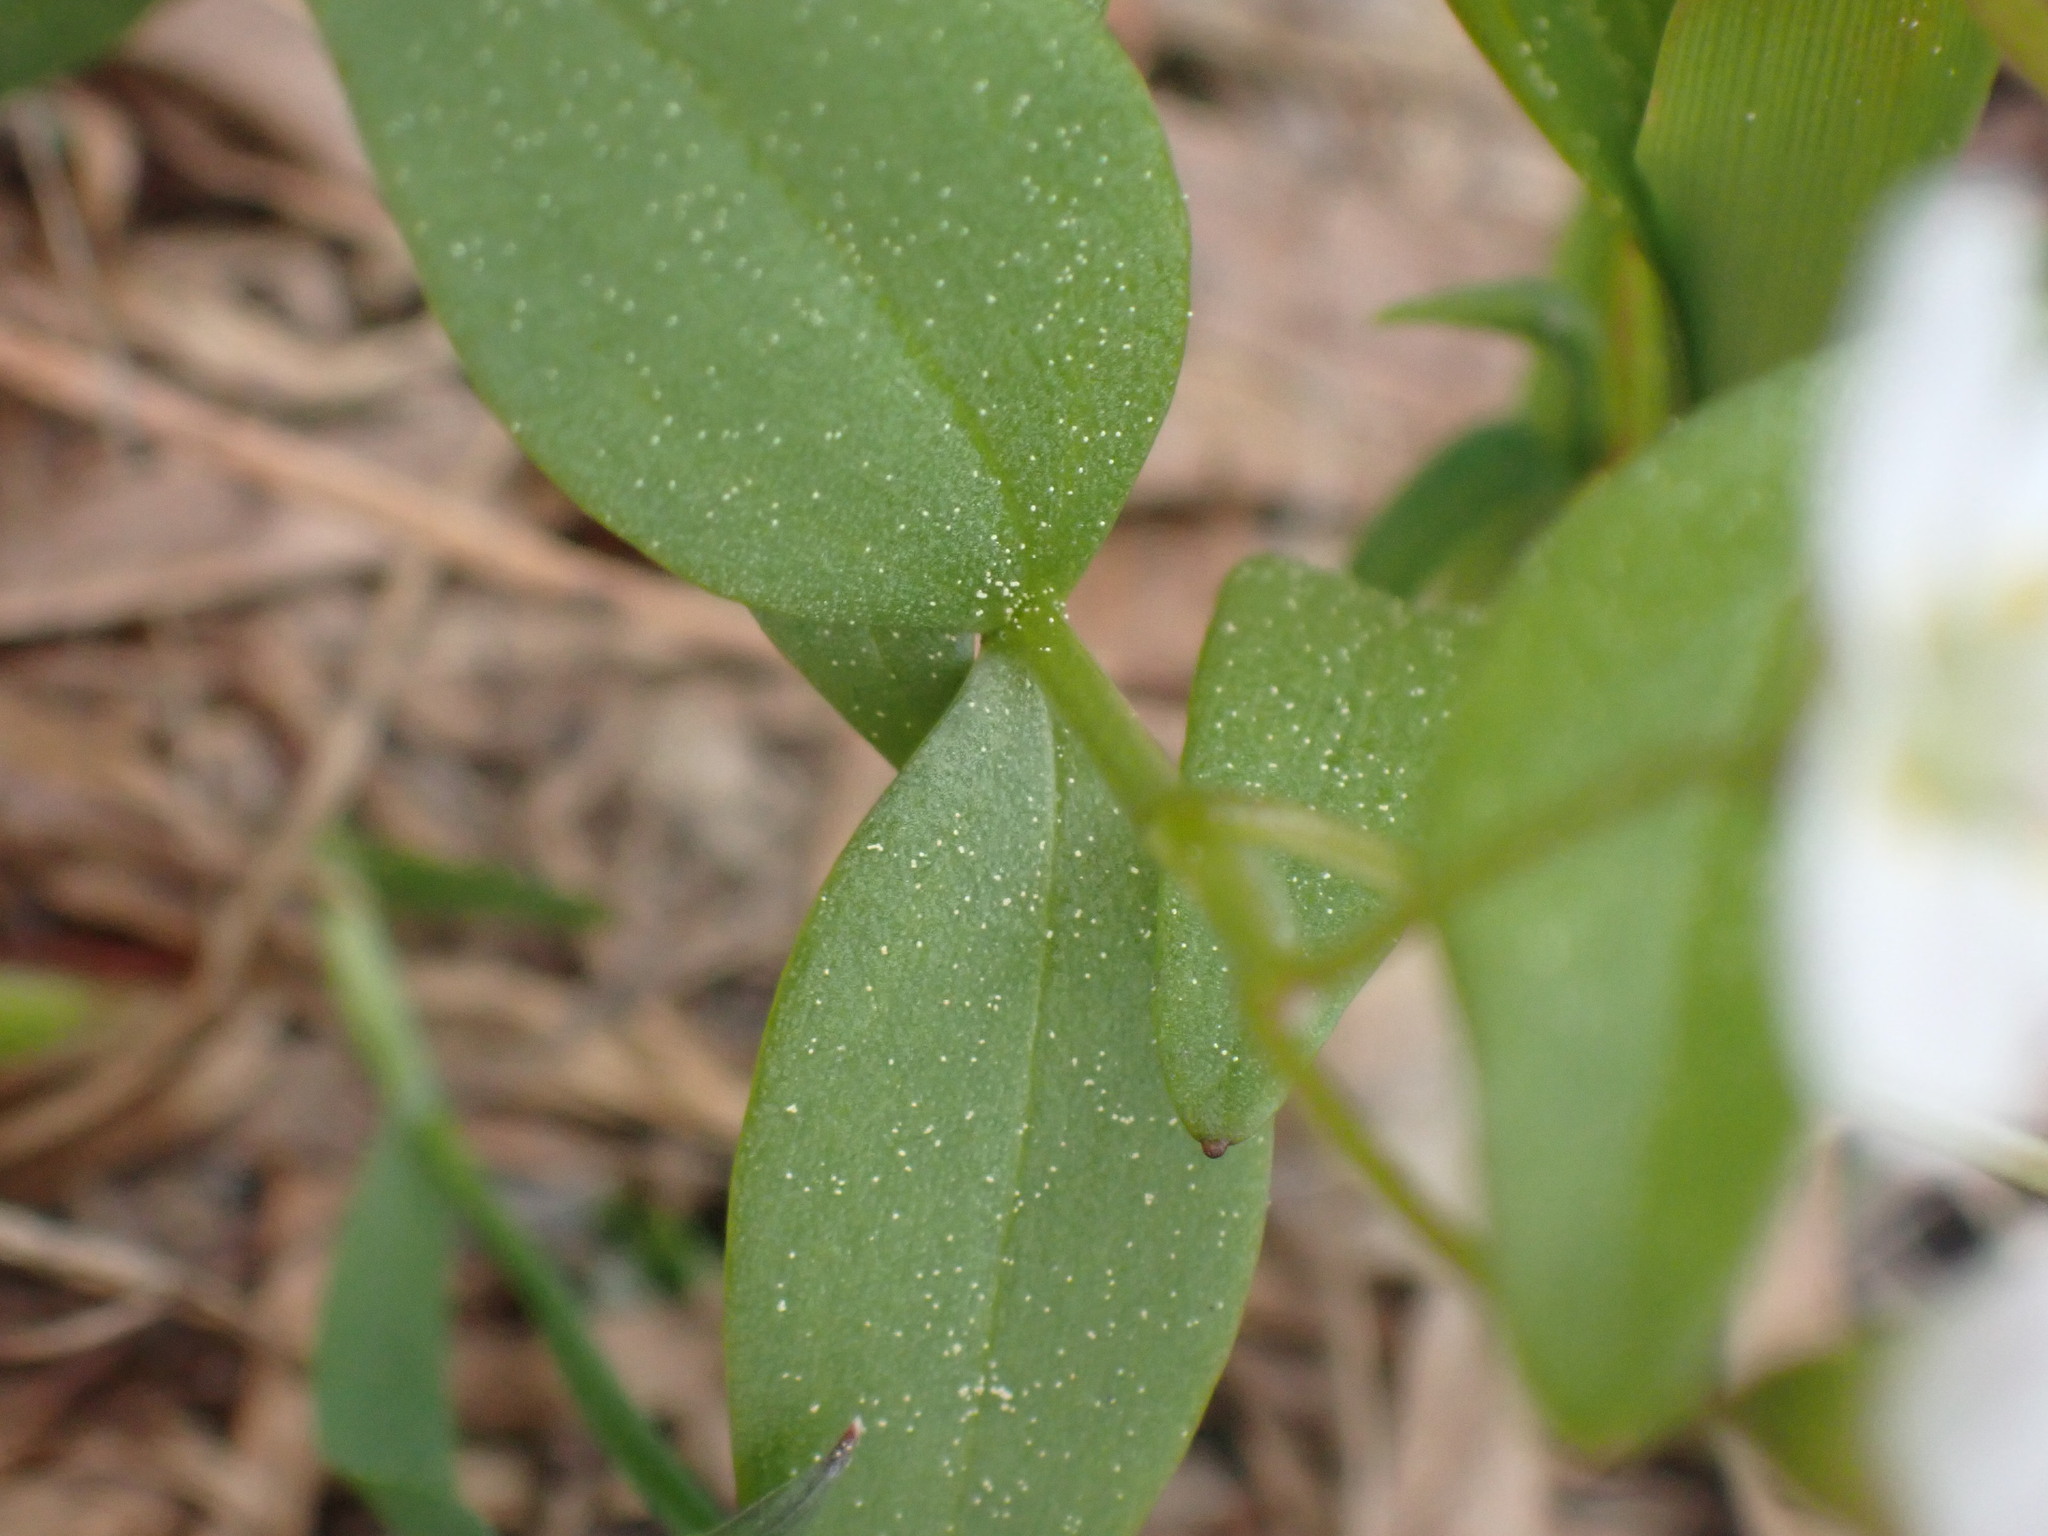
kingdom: Plantae
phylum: Tracheophyta
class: Magnoliopsida
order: Caryophyllales
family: Montiaceae
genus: Claytonia
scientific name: Claytonia lanceolata
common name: Western spring-beauty
